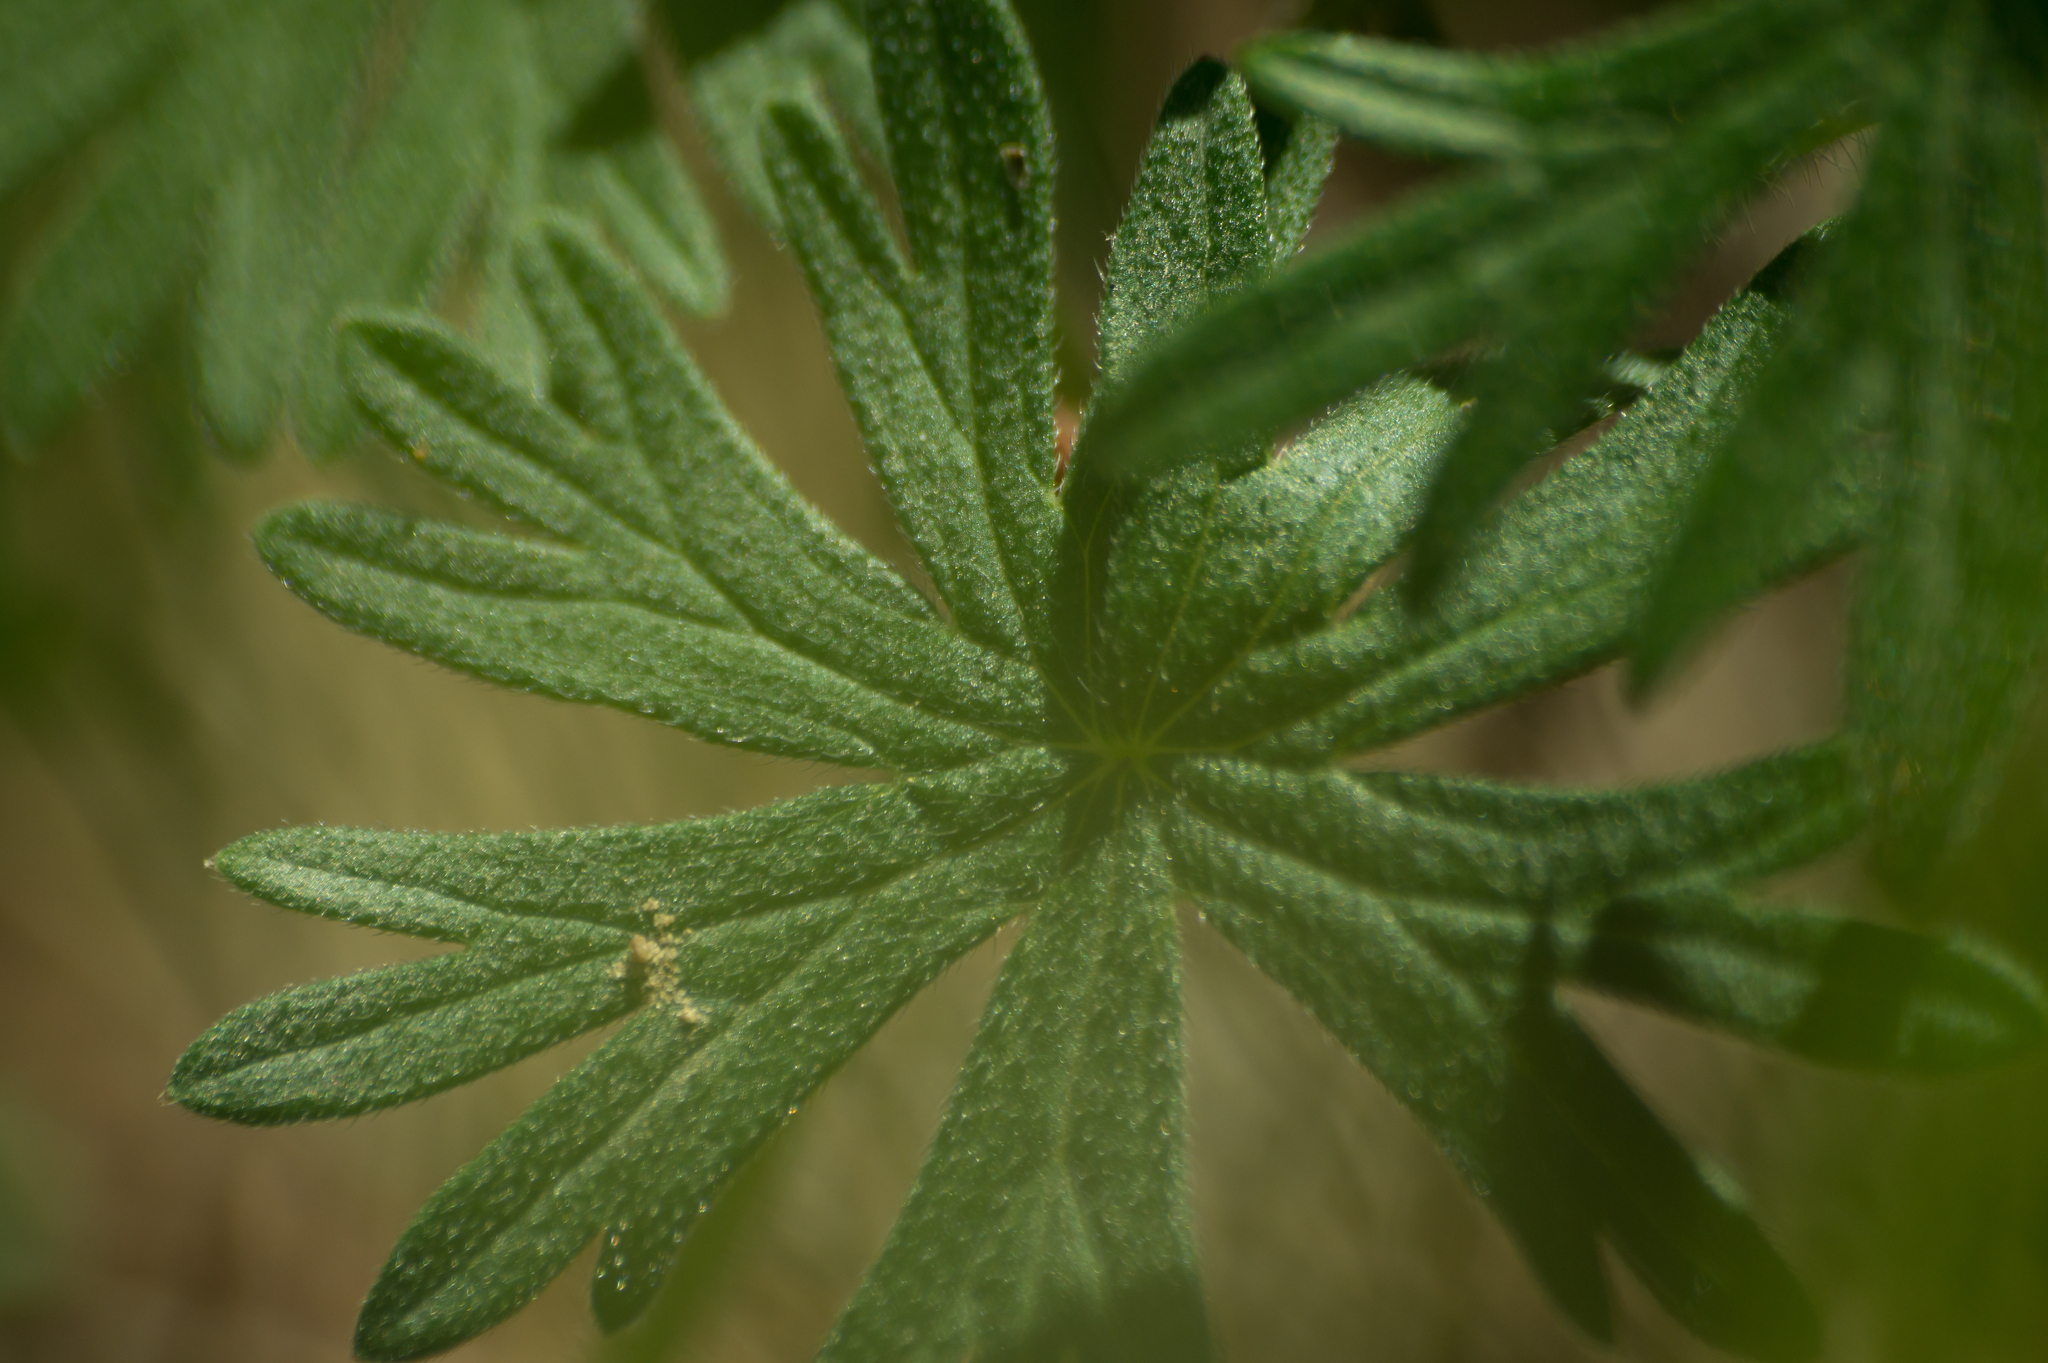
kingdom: Plantae
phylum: Tracheophyta
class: Magnoliopsida
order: Geraniales
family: Geraniaceae
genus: Geranium
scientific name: Geranium sanguineum
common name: Bloody crane's-bill
